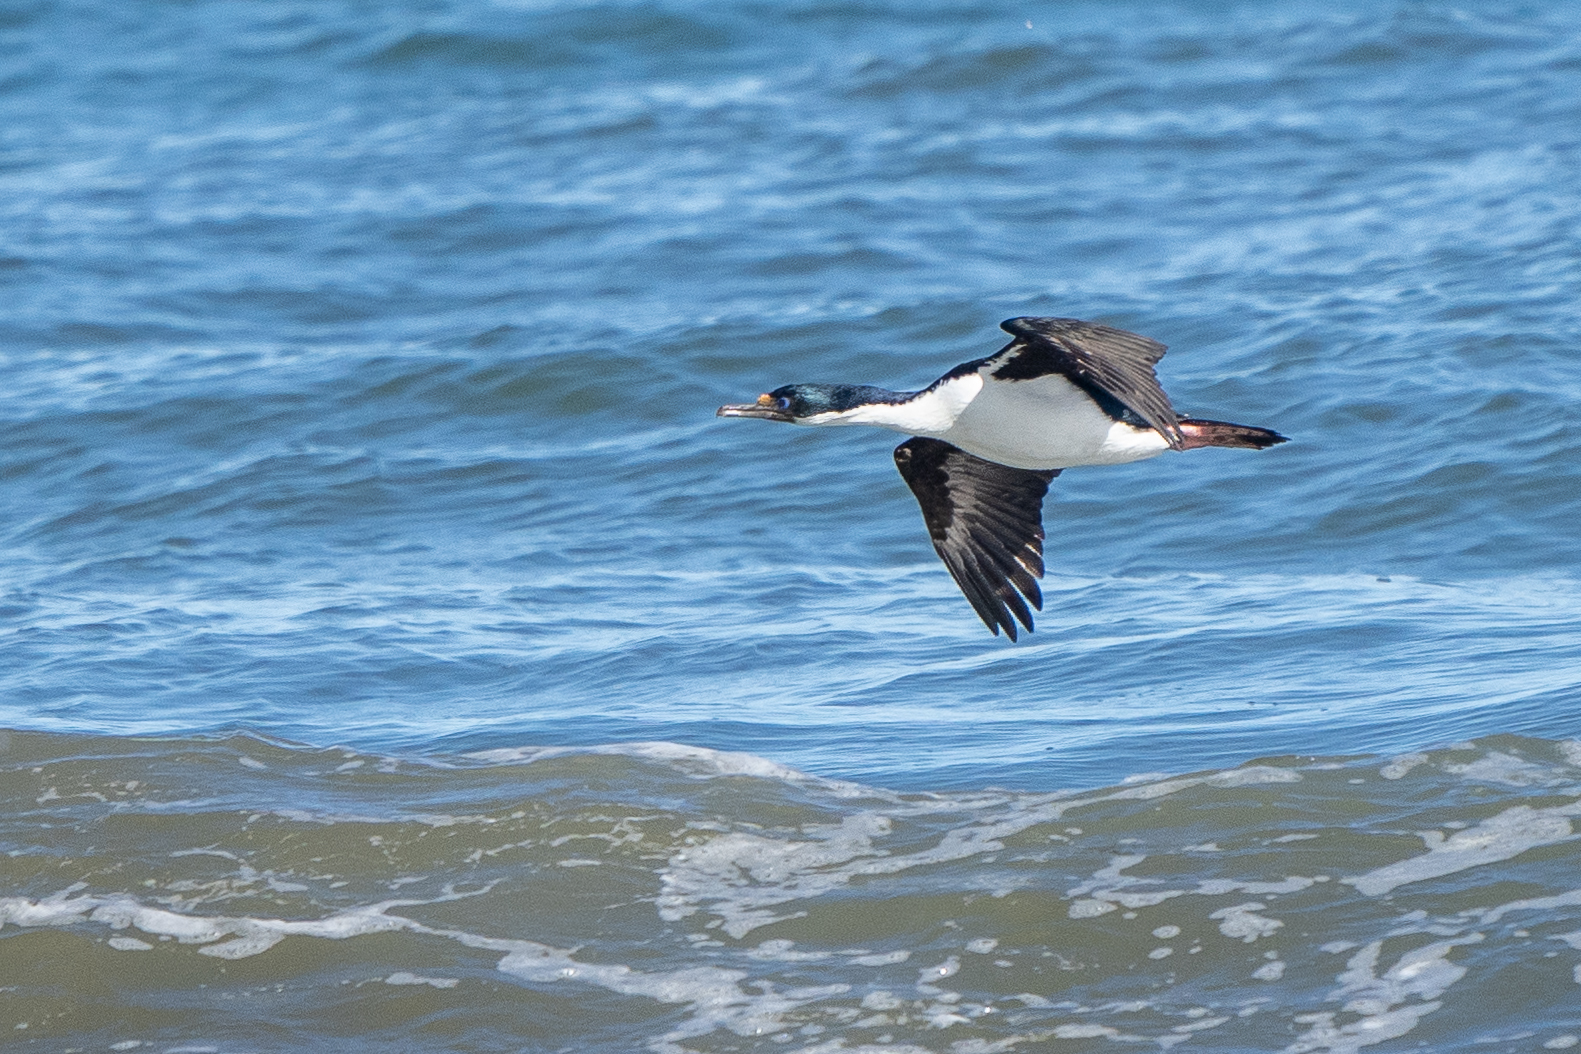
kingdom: Animalia
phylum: Chordata
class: Aves
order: Suliformes
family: Phalacrocoracidae
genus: Leucocarbo
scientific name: Leucocarbo atriceps
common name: Imperial shag
